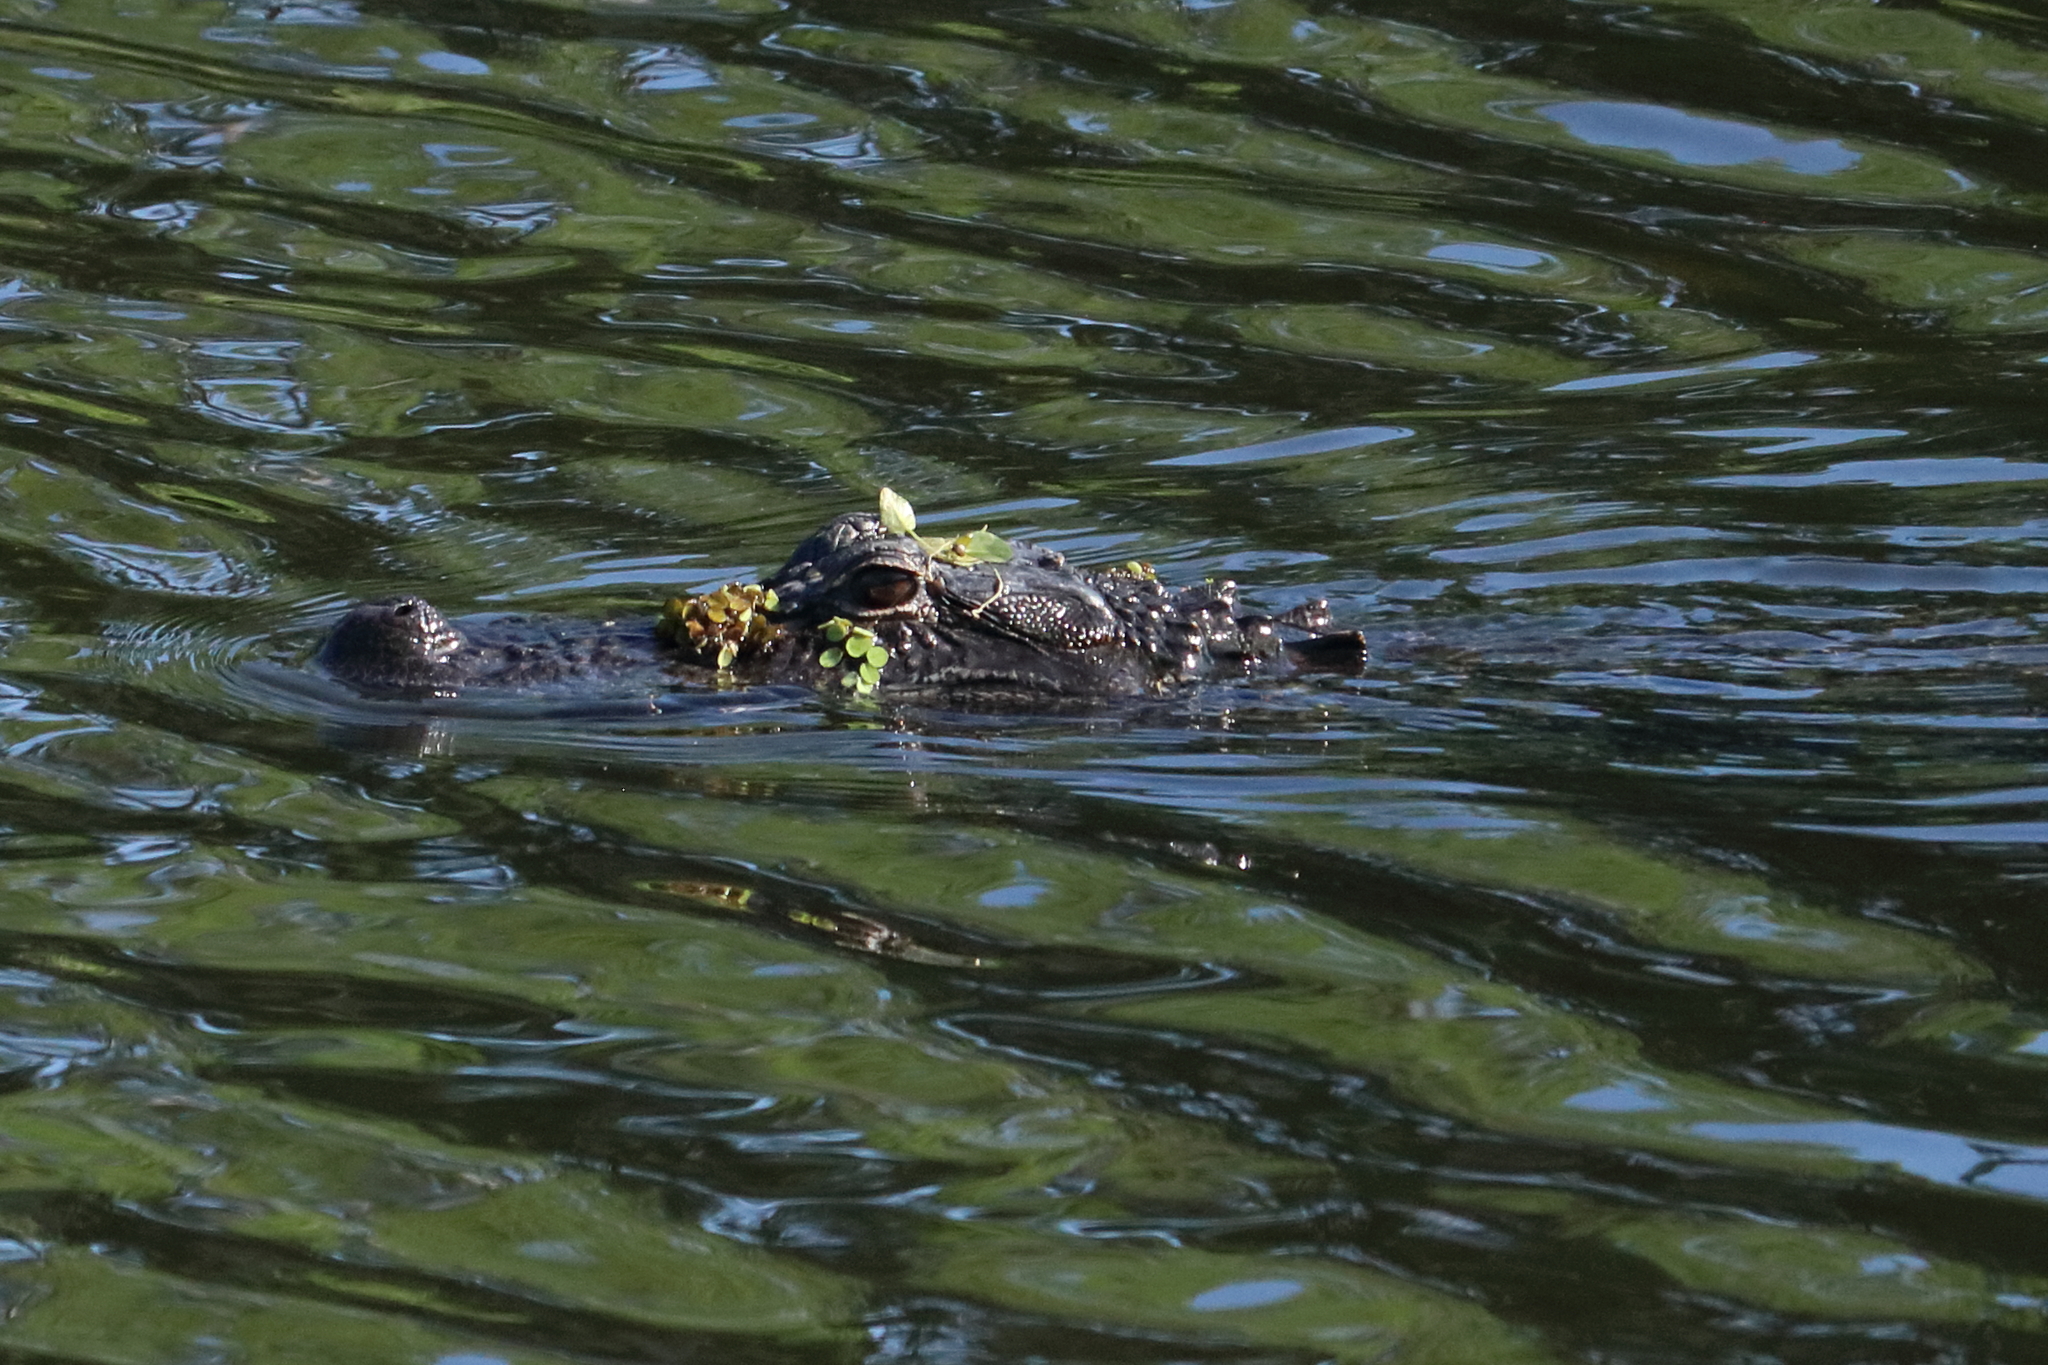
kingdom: Animalia
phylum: Chordata
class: Crocodylia
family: Alligatoridae
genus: Alligator
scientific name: Alligator mississippiensis
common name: American alligator
